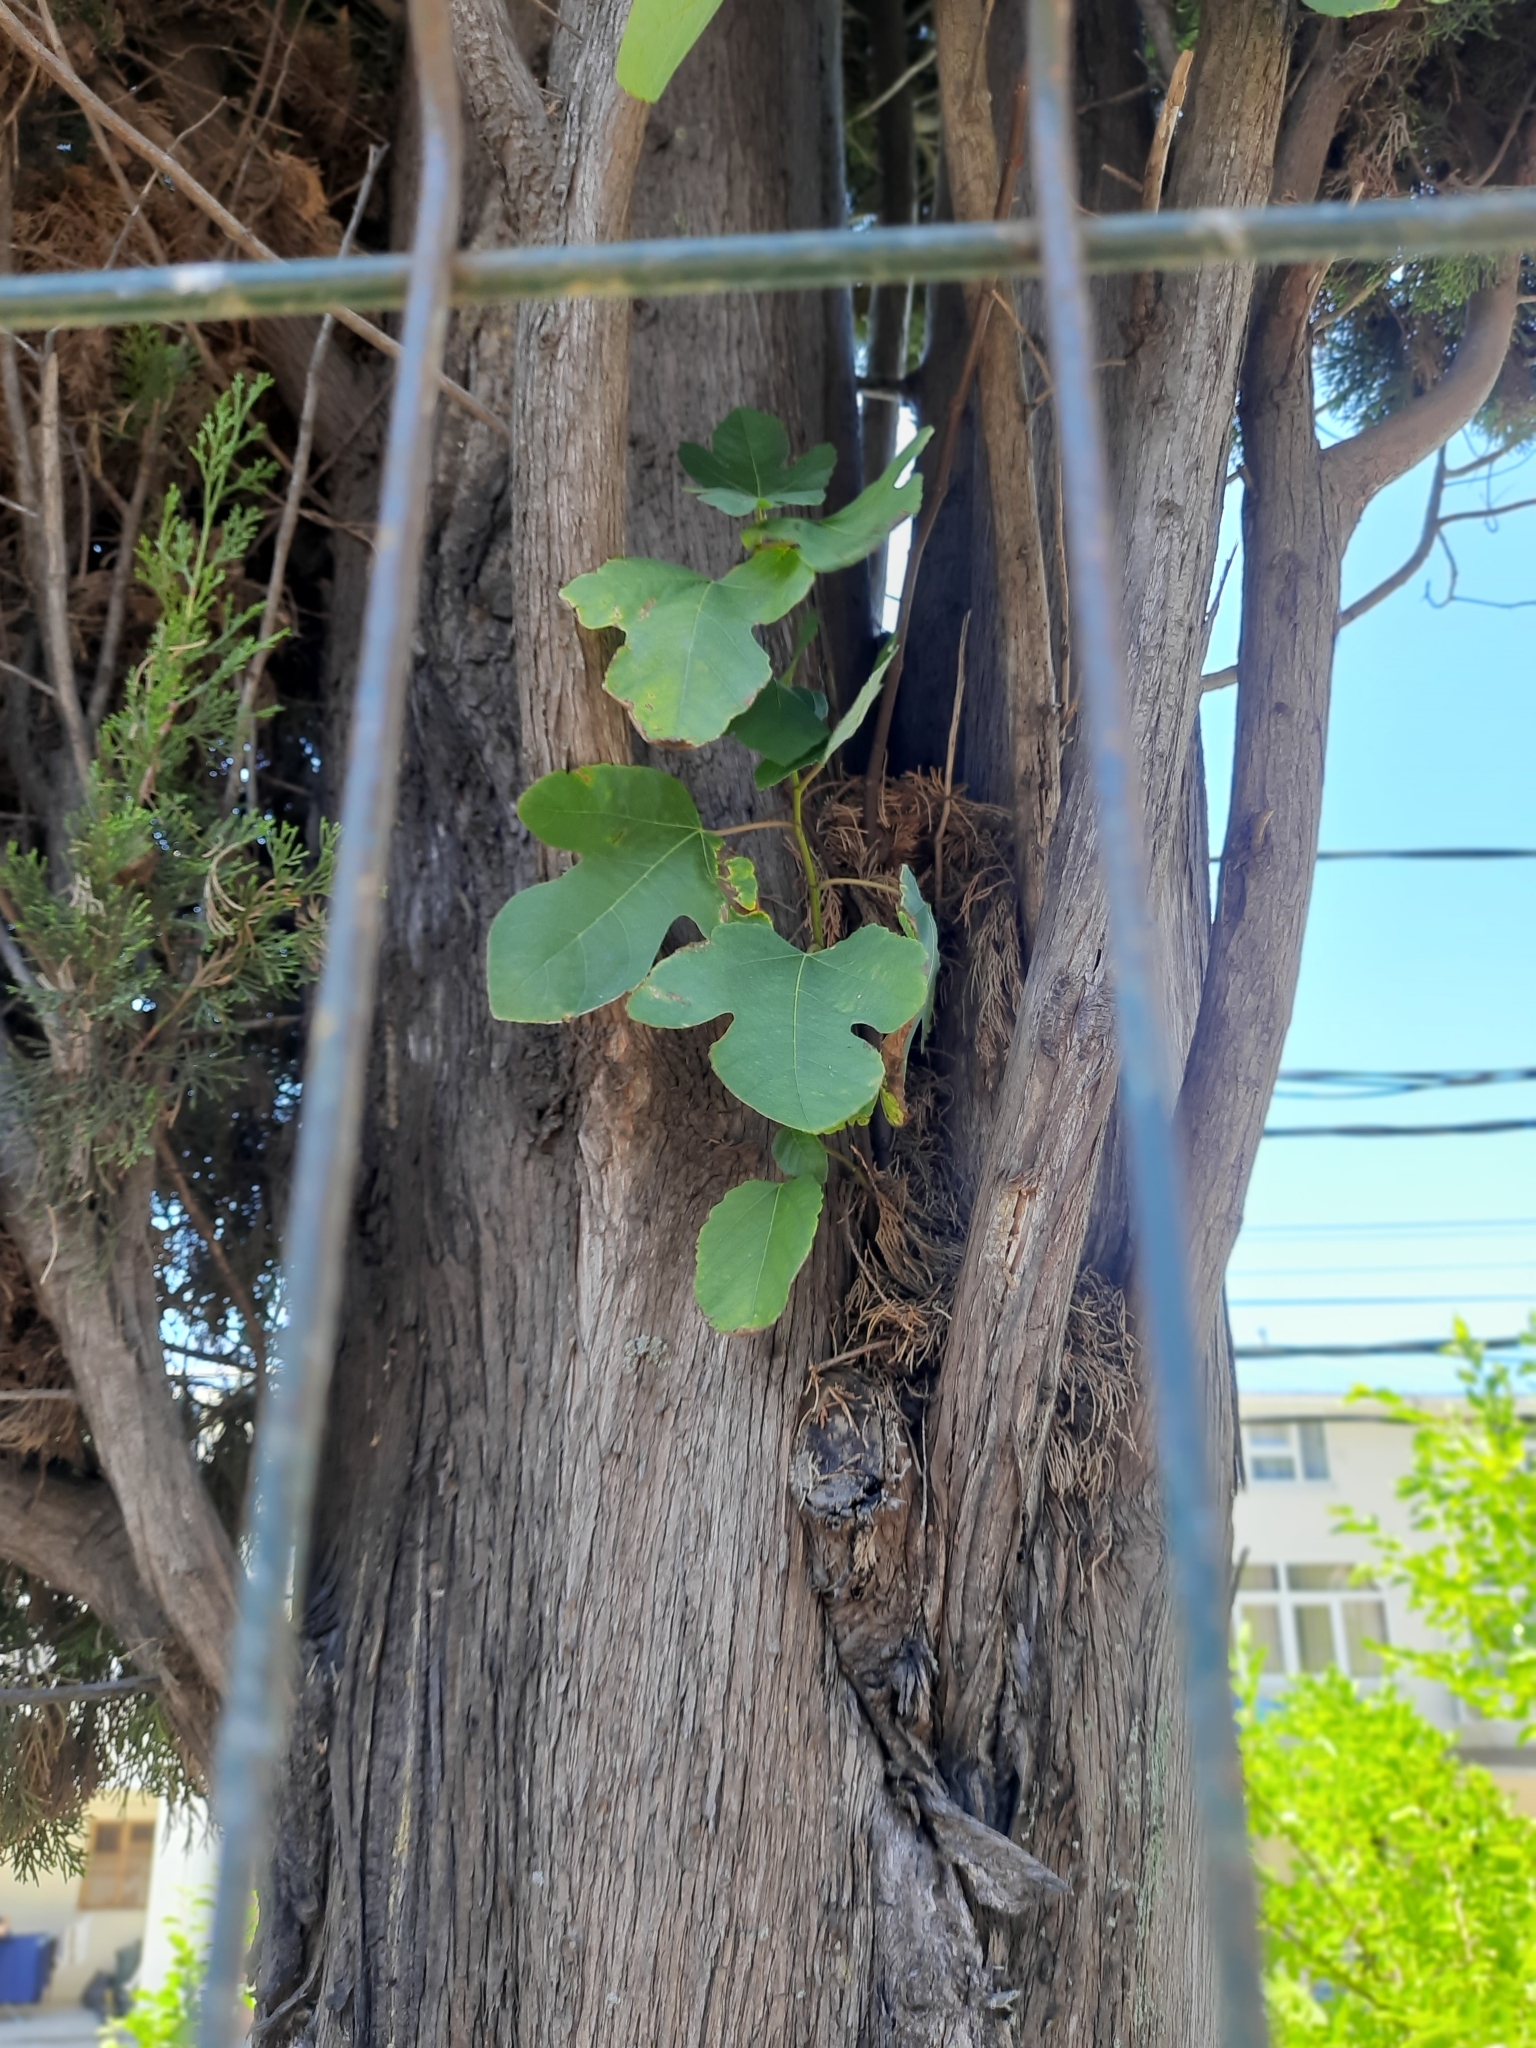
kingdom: Plantae
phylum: Tracheophyta
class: Magnoliopsida
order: Rosales
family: Moraceae
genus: Ficus
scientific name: Ficus carica
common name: Fig
